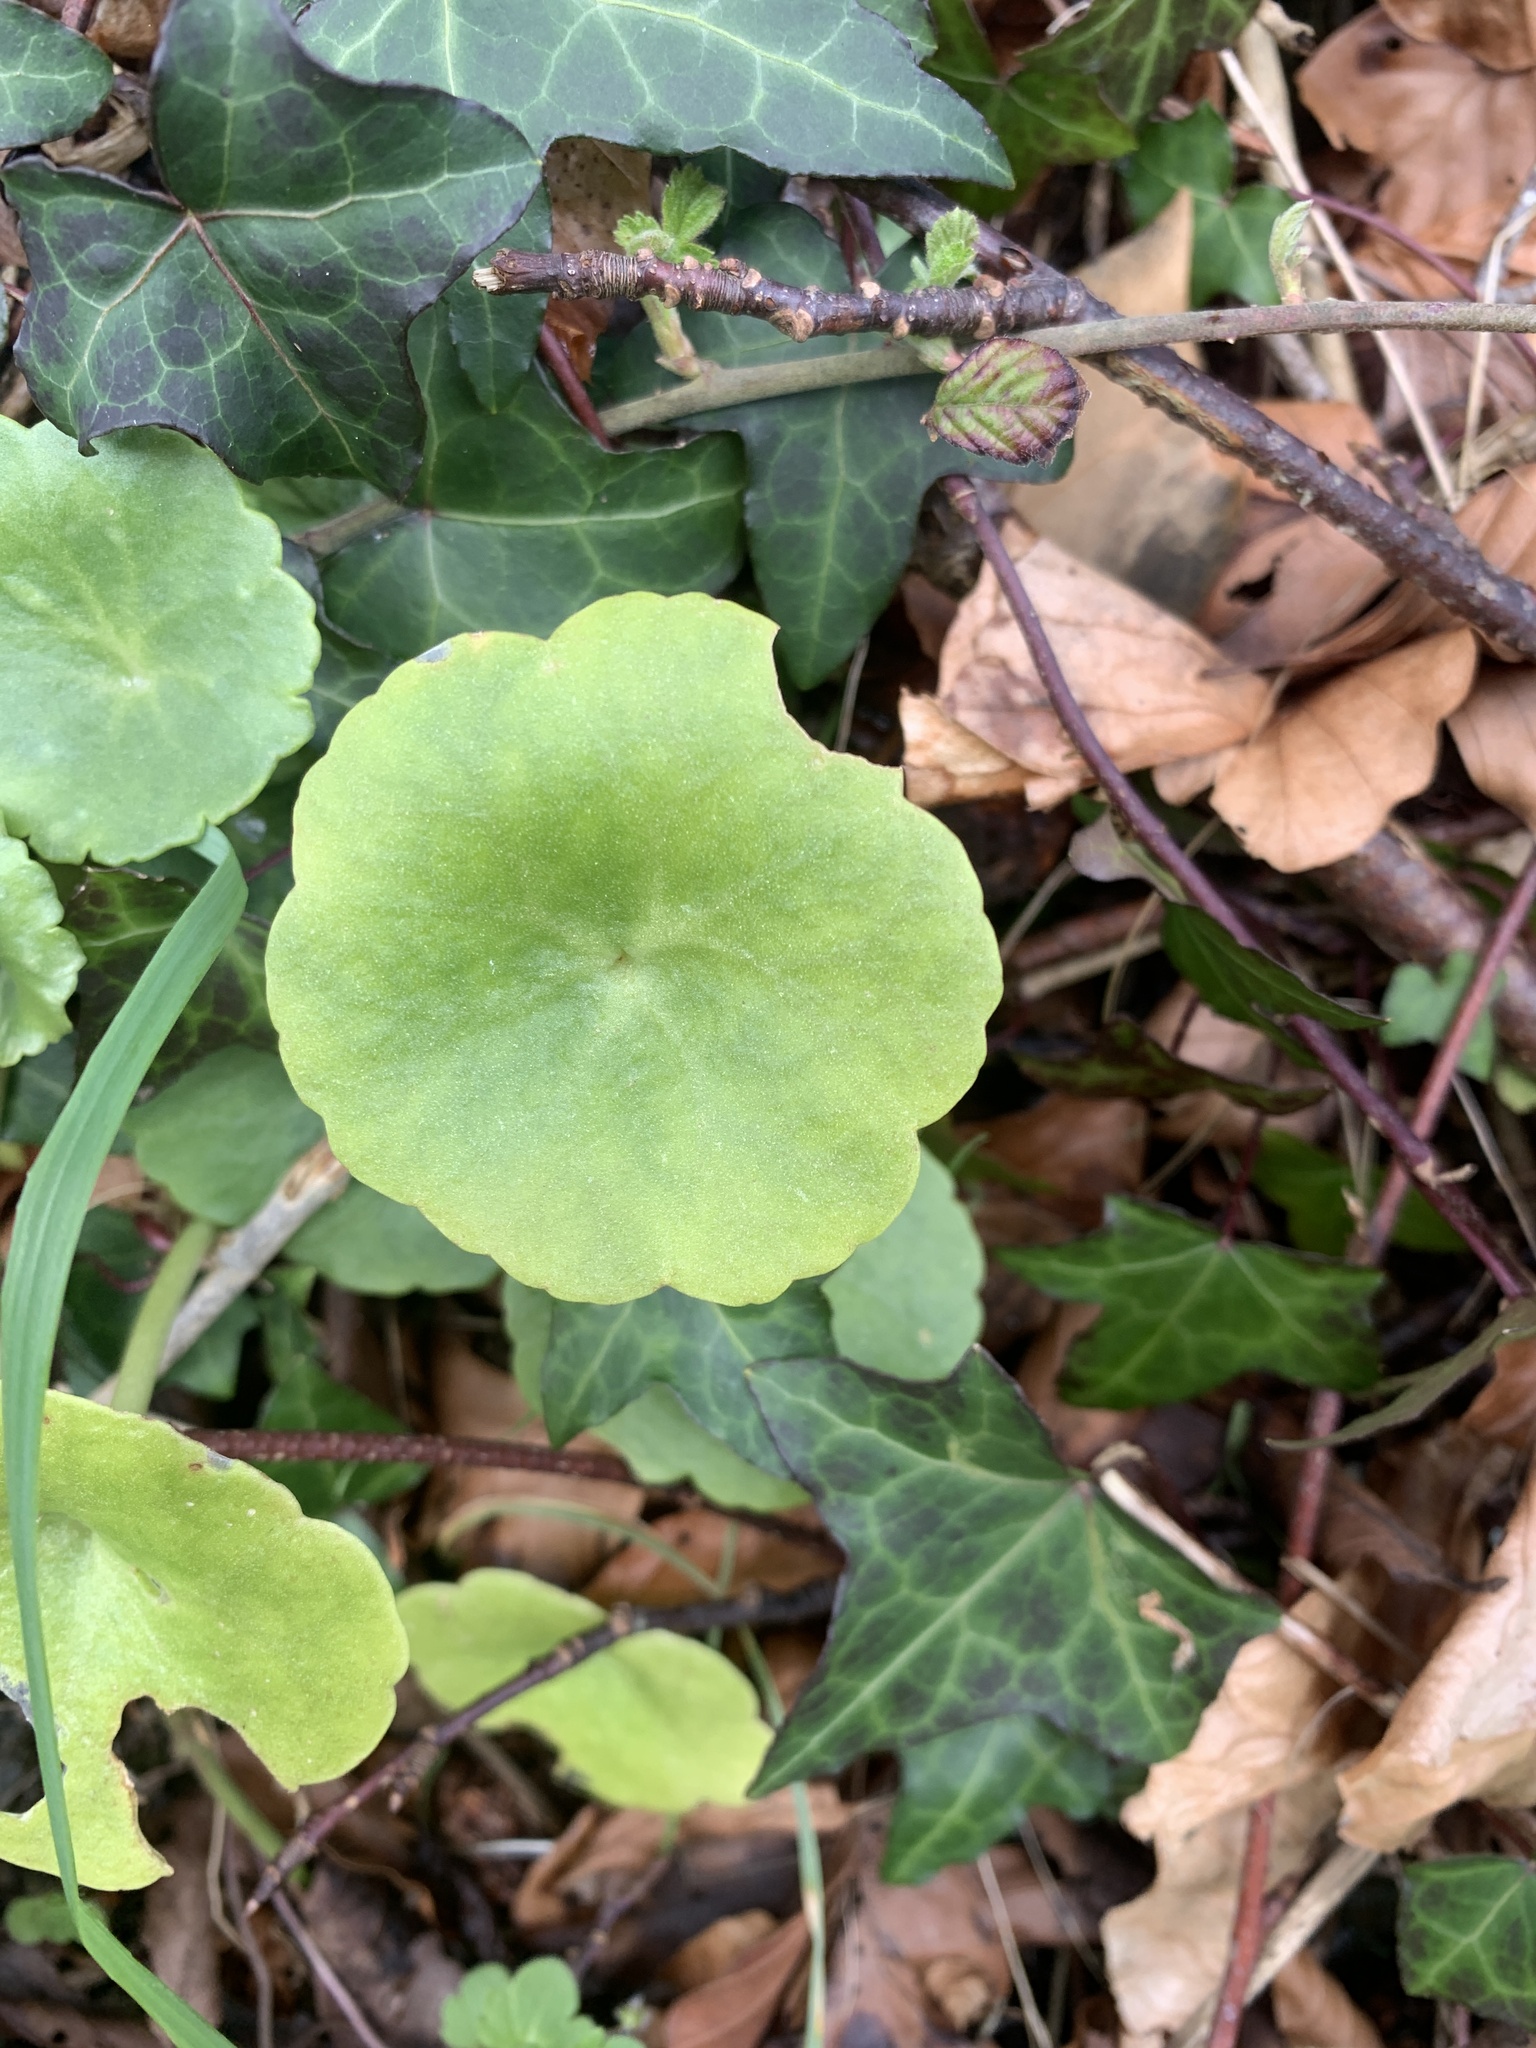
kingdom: Plantae
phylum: Tracheophyta
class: Magnoliopsida
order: Saxifragales
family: Crassulaceae
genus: Umbilicus
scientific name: Umbilicus rupestris
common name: Navelwort
